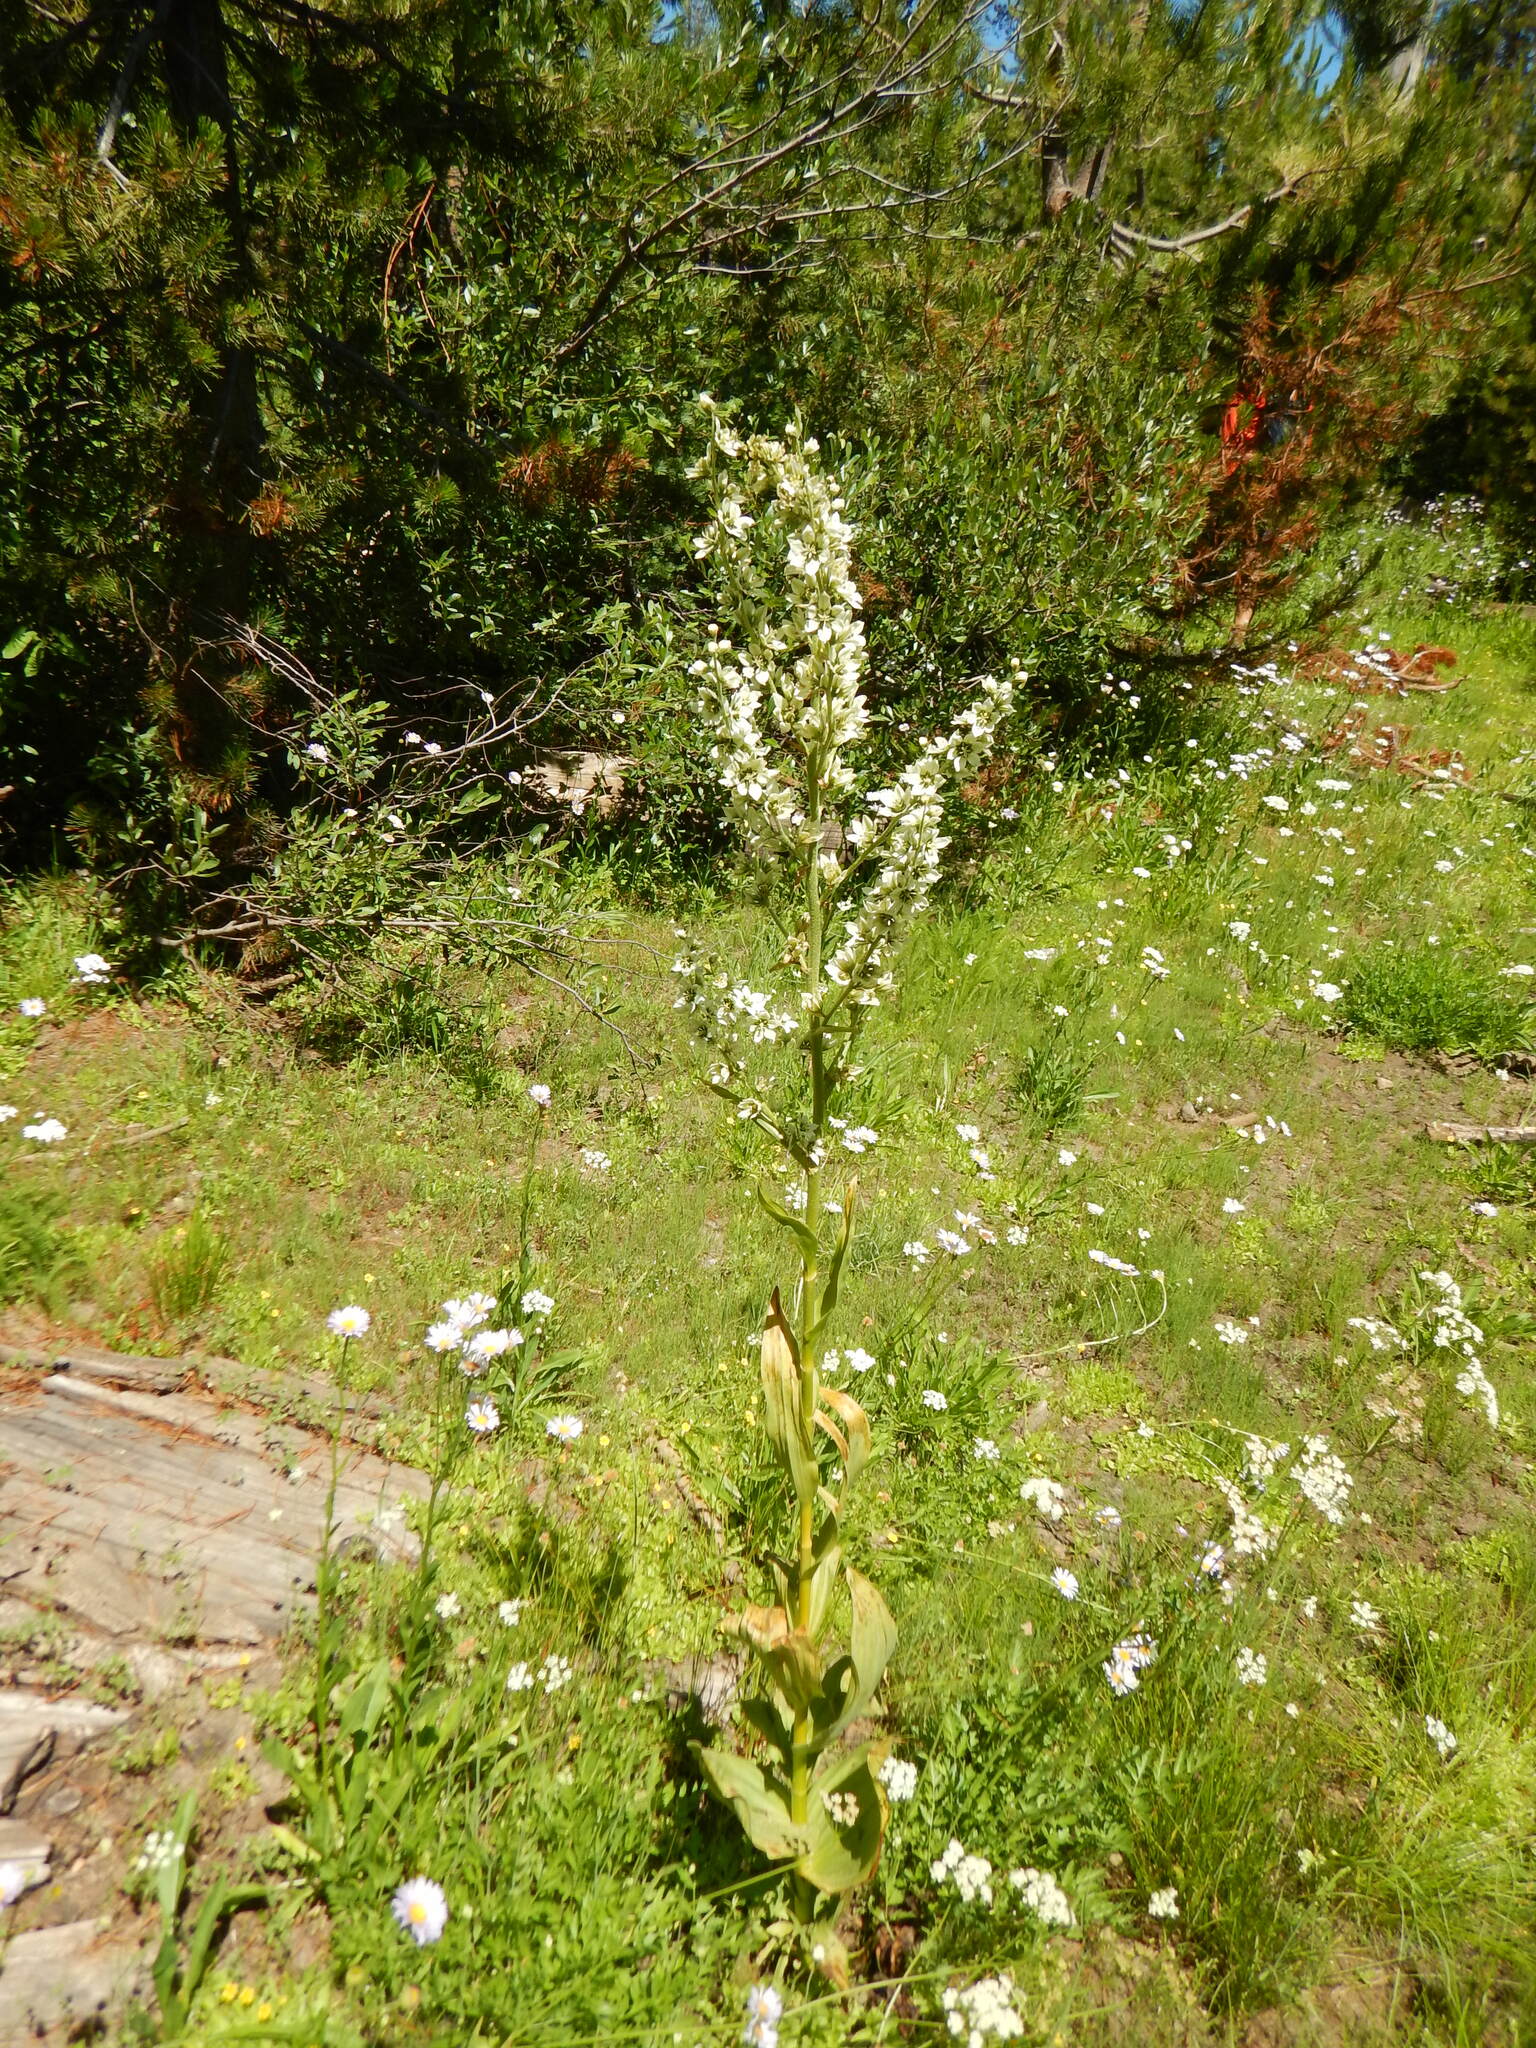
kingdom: Plantae
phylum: Tracheophyta
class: Liliopsida
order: Liliales
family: Melanthiaceae
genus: Veratrum
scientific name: Veratrum californicum
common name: California veratrum
